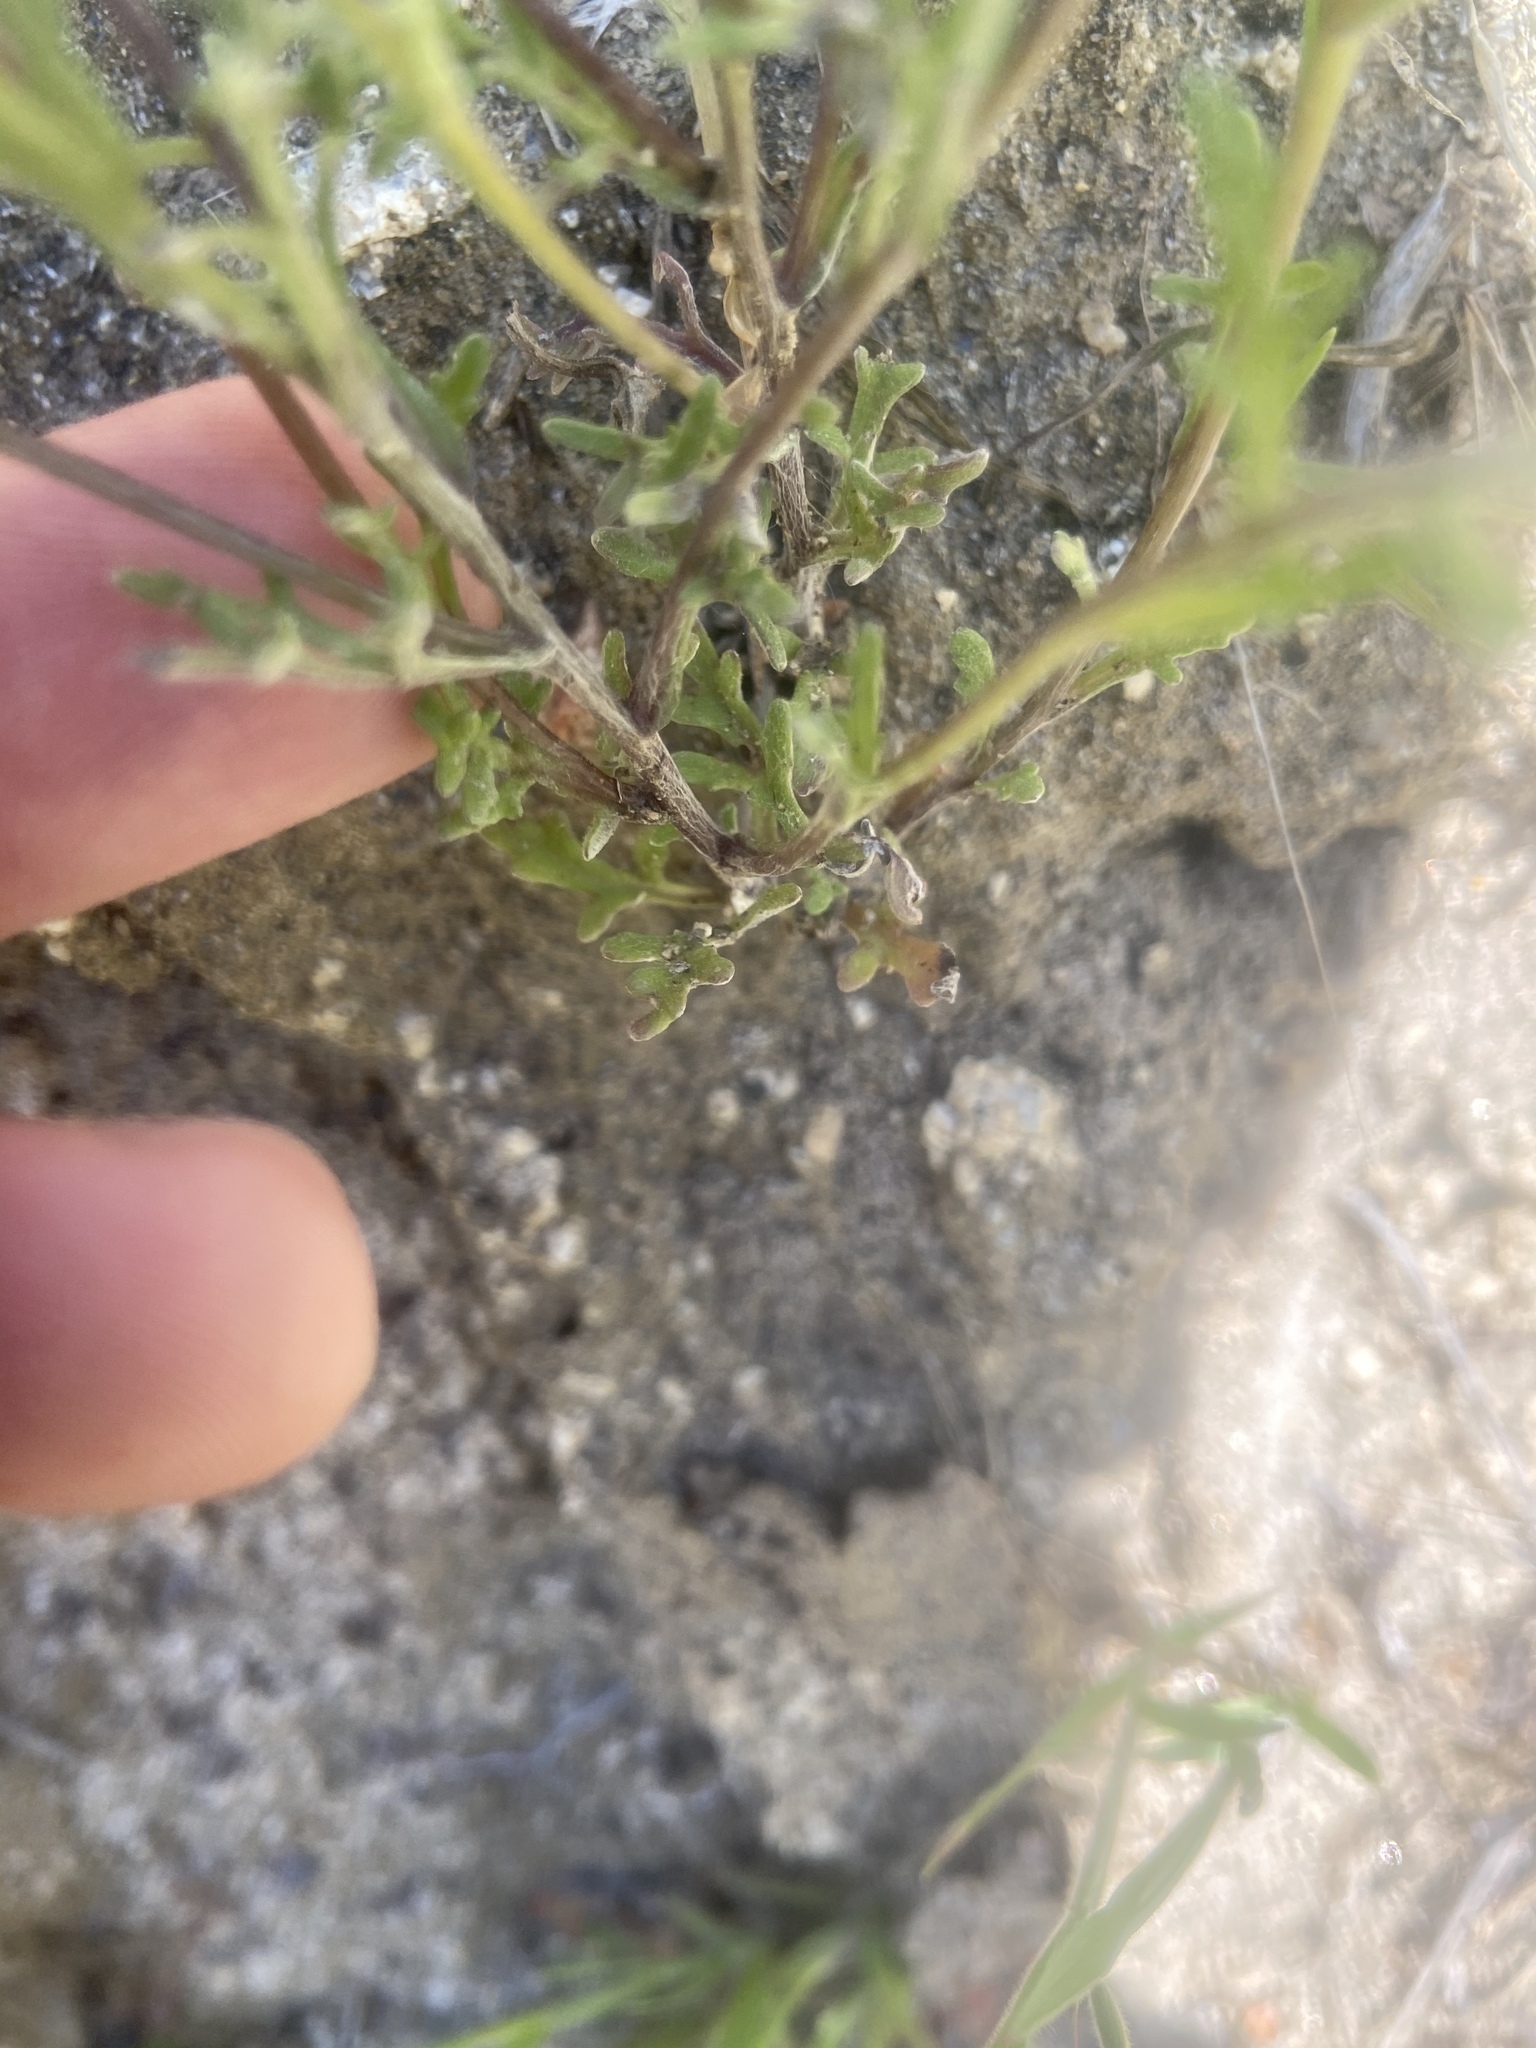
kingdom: Plantae
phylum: Tracheophyta
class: Magnoliopsida
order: Asterales
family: Asteraceae
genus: Pseudobahia
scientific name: Pseudobahia heermannii
